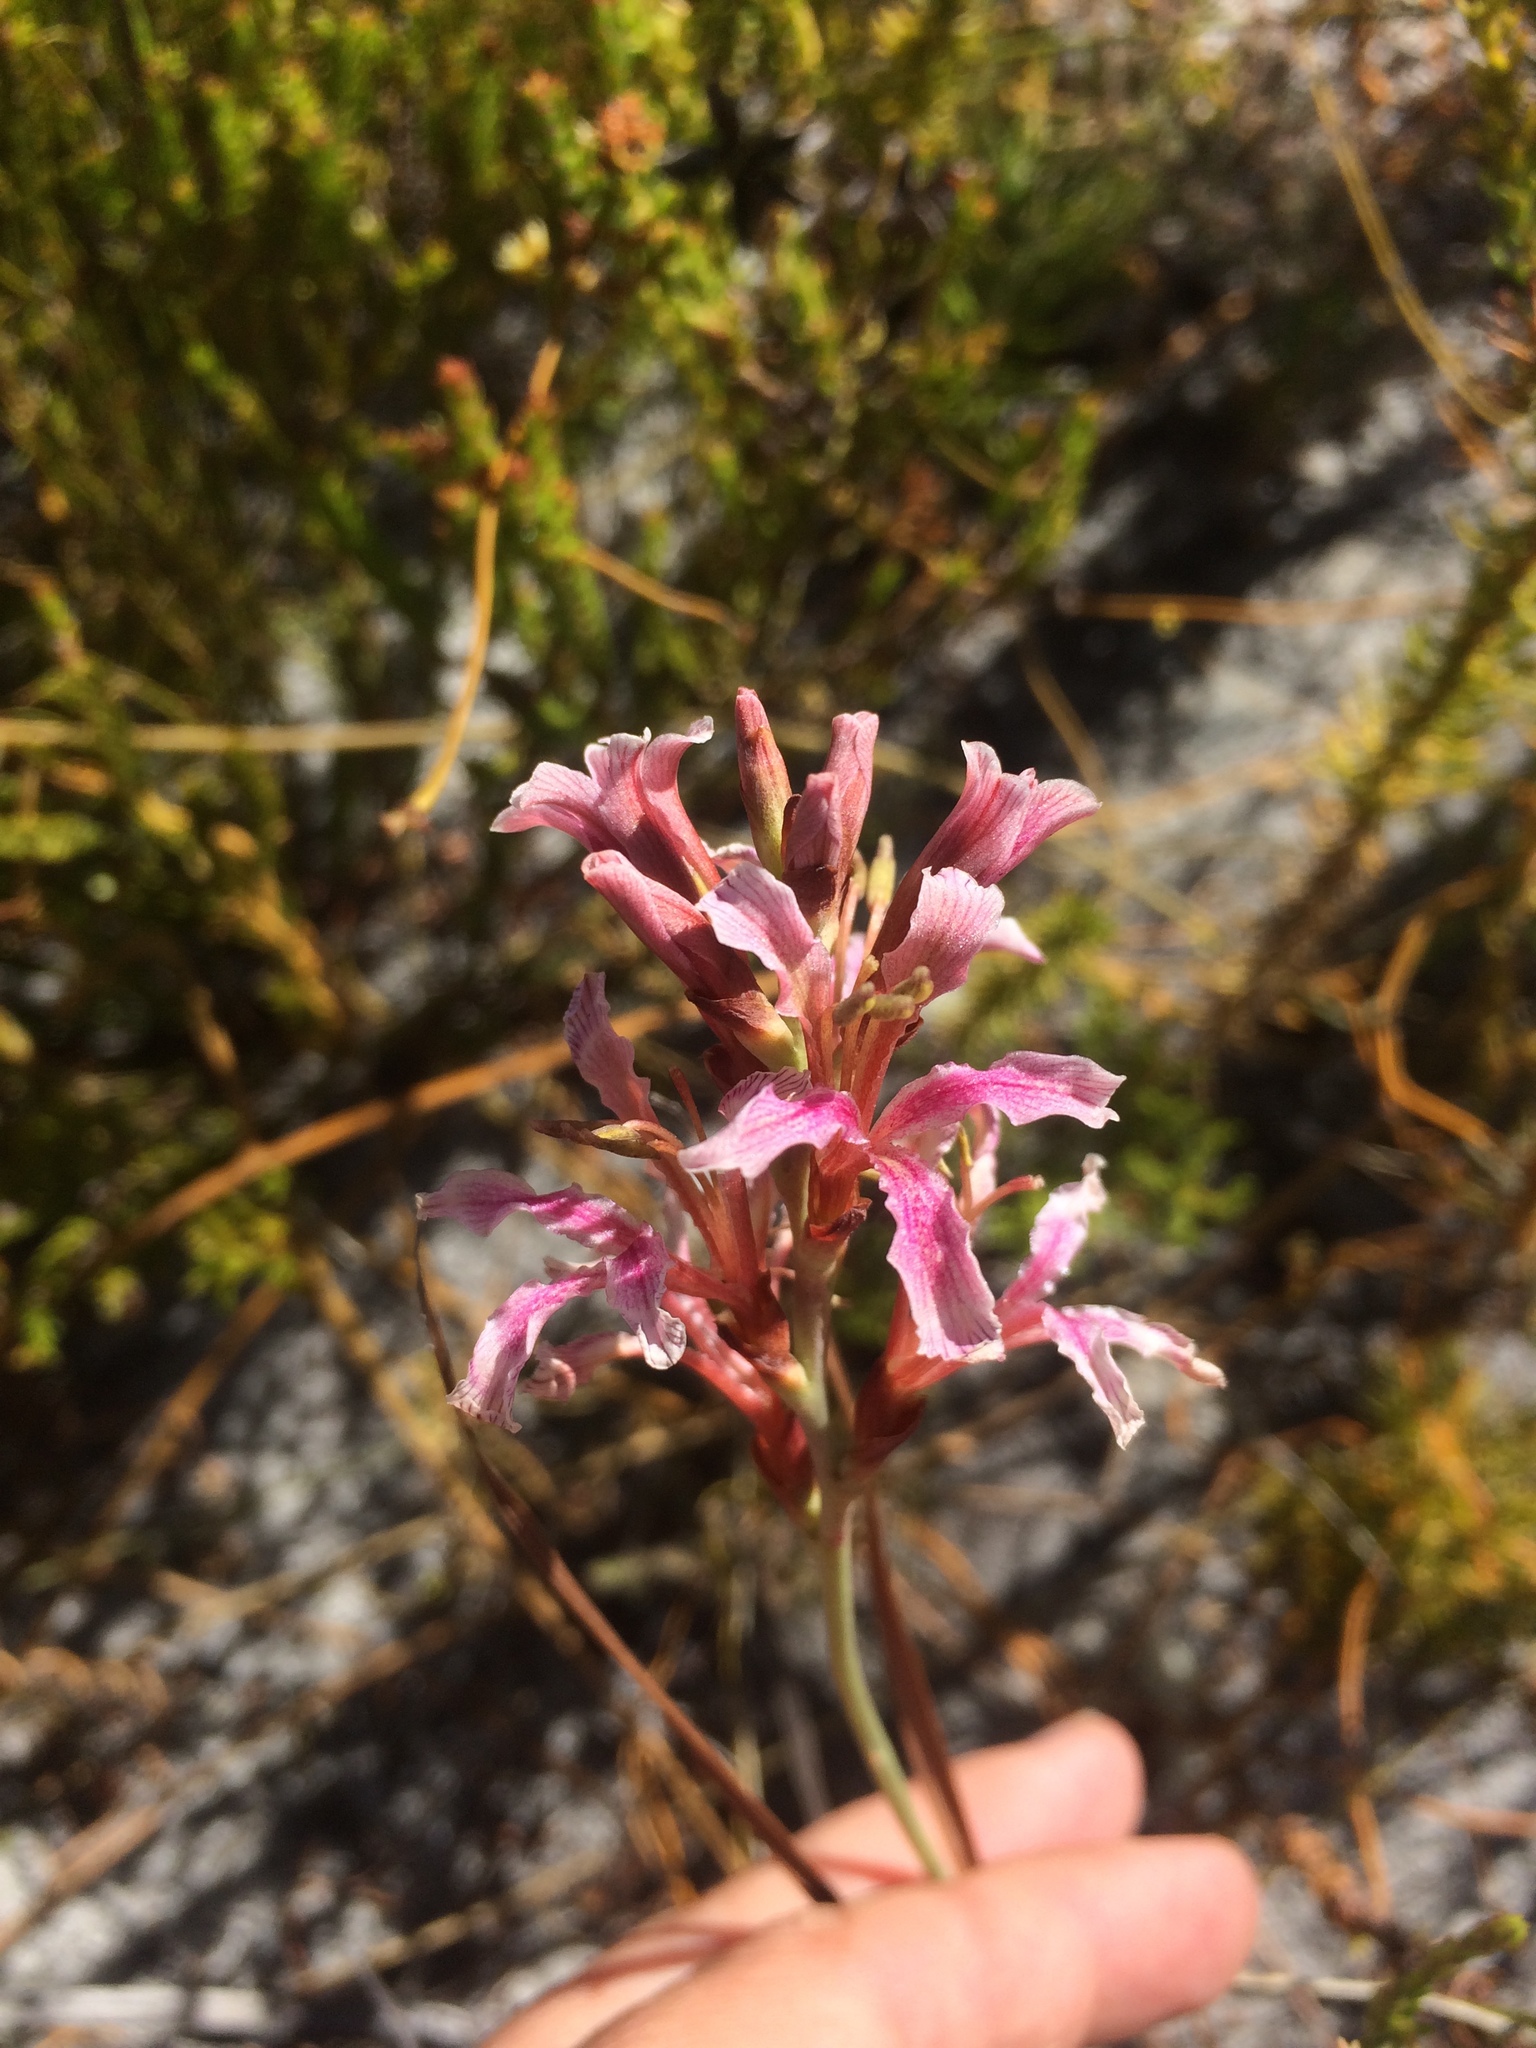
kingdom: Plantae
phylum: Tracheophyta
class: Liliopsida
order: Asparagales
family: Iridaceae
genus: Tritoniopsis
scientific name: Tritoniopsis dodii
